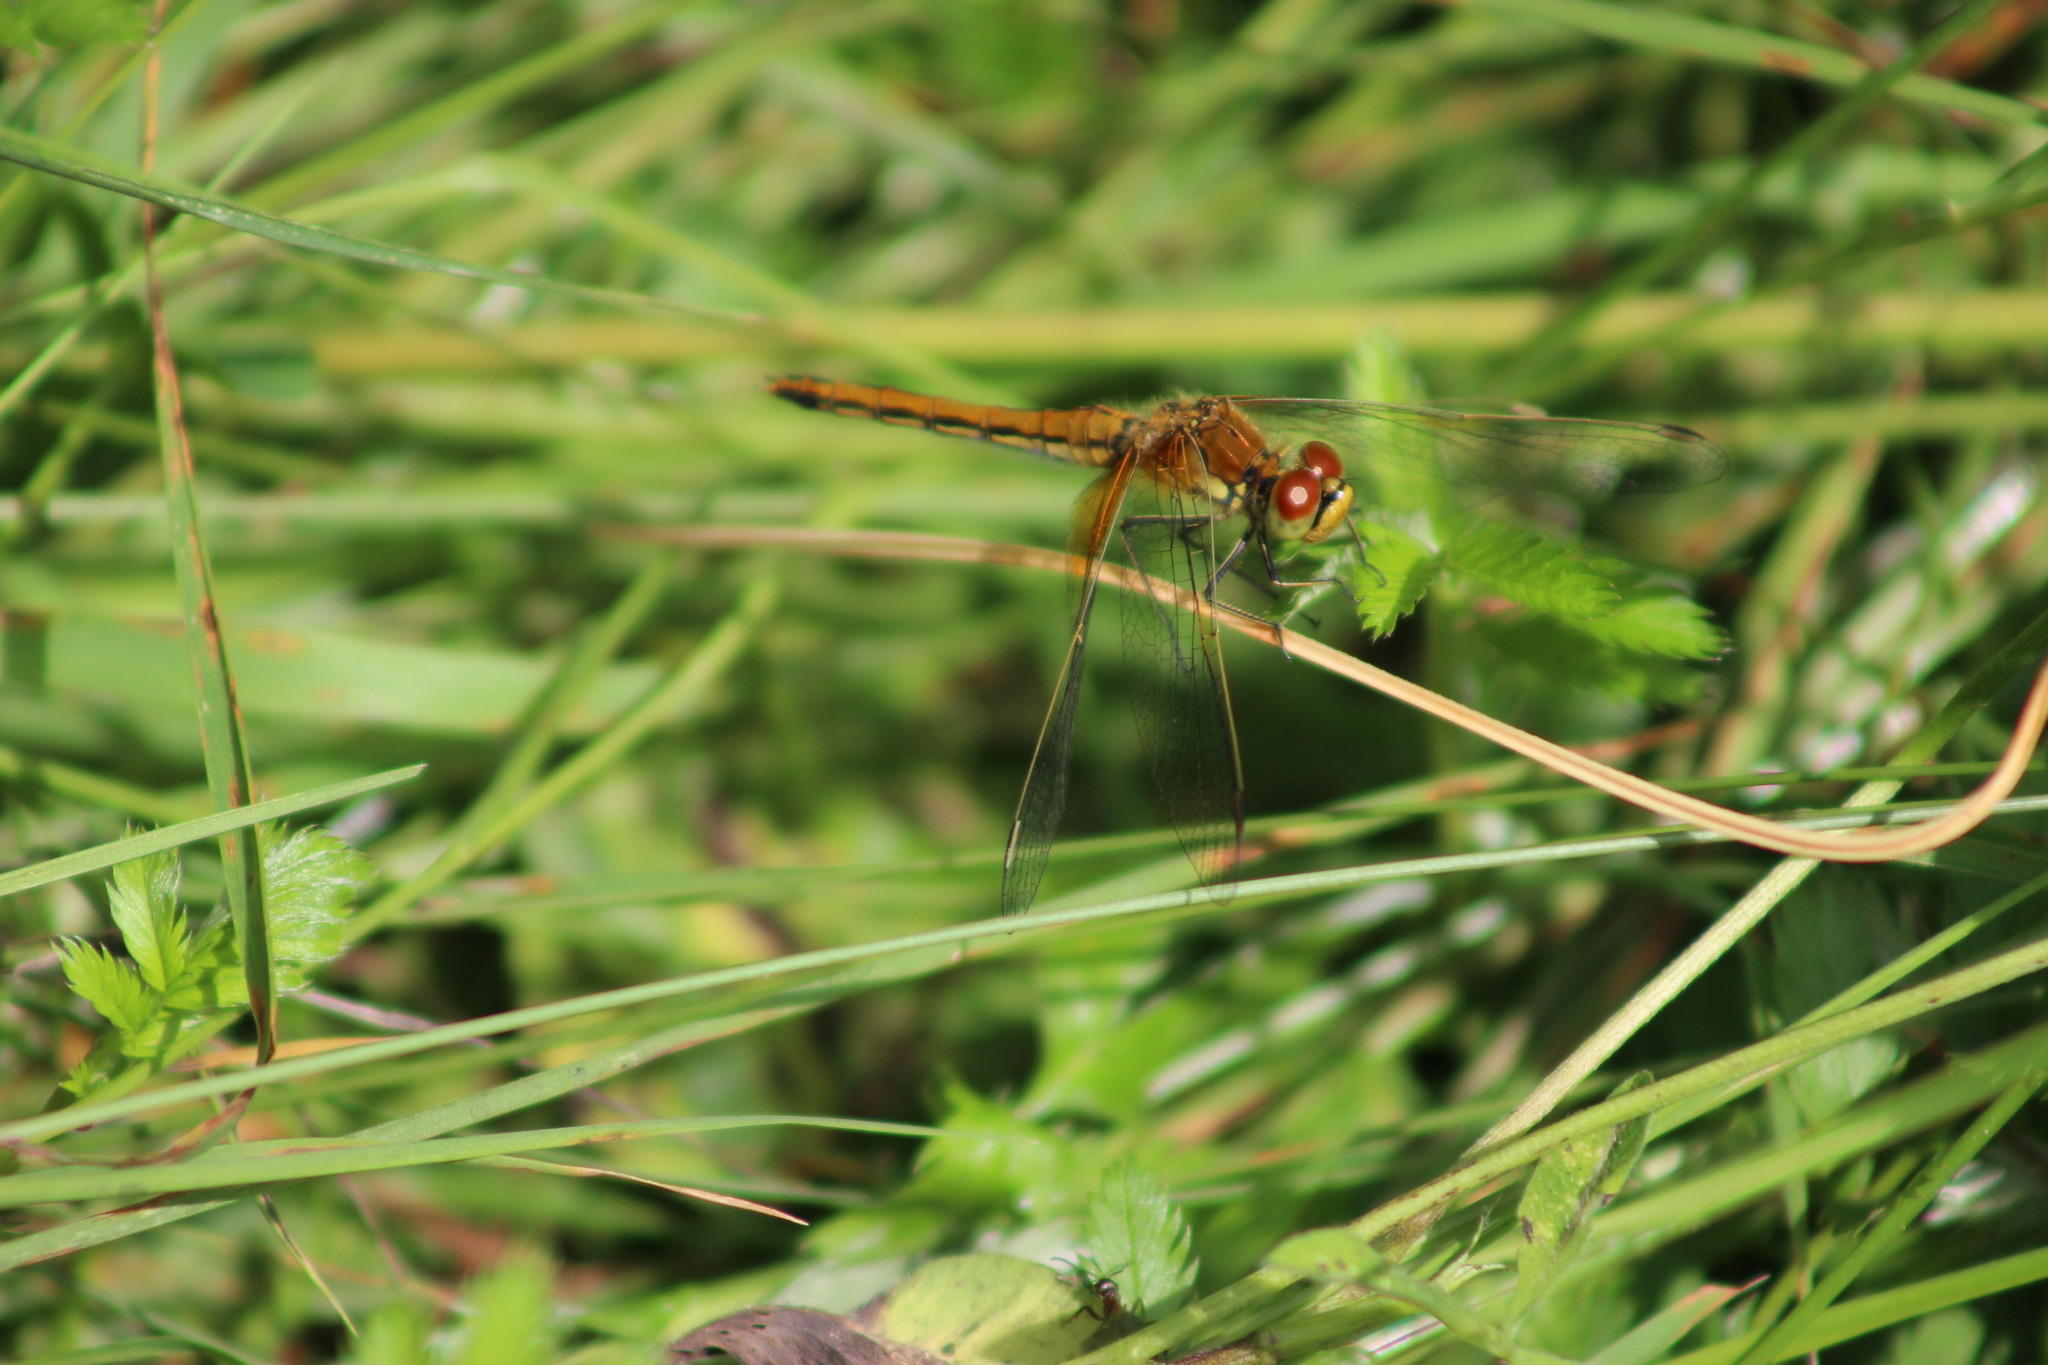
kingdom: Animalia
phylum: Arthropoda
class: Insecta
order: Odonata
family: Libellulidae
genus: Sympetrum
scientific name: Sympetrum flaveolum
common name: Yellow-winged darter
